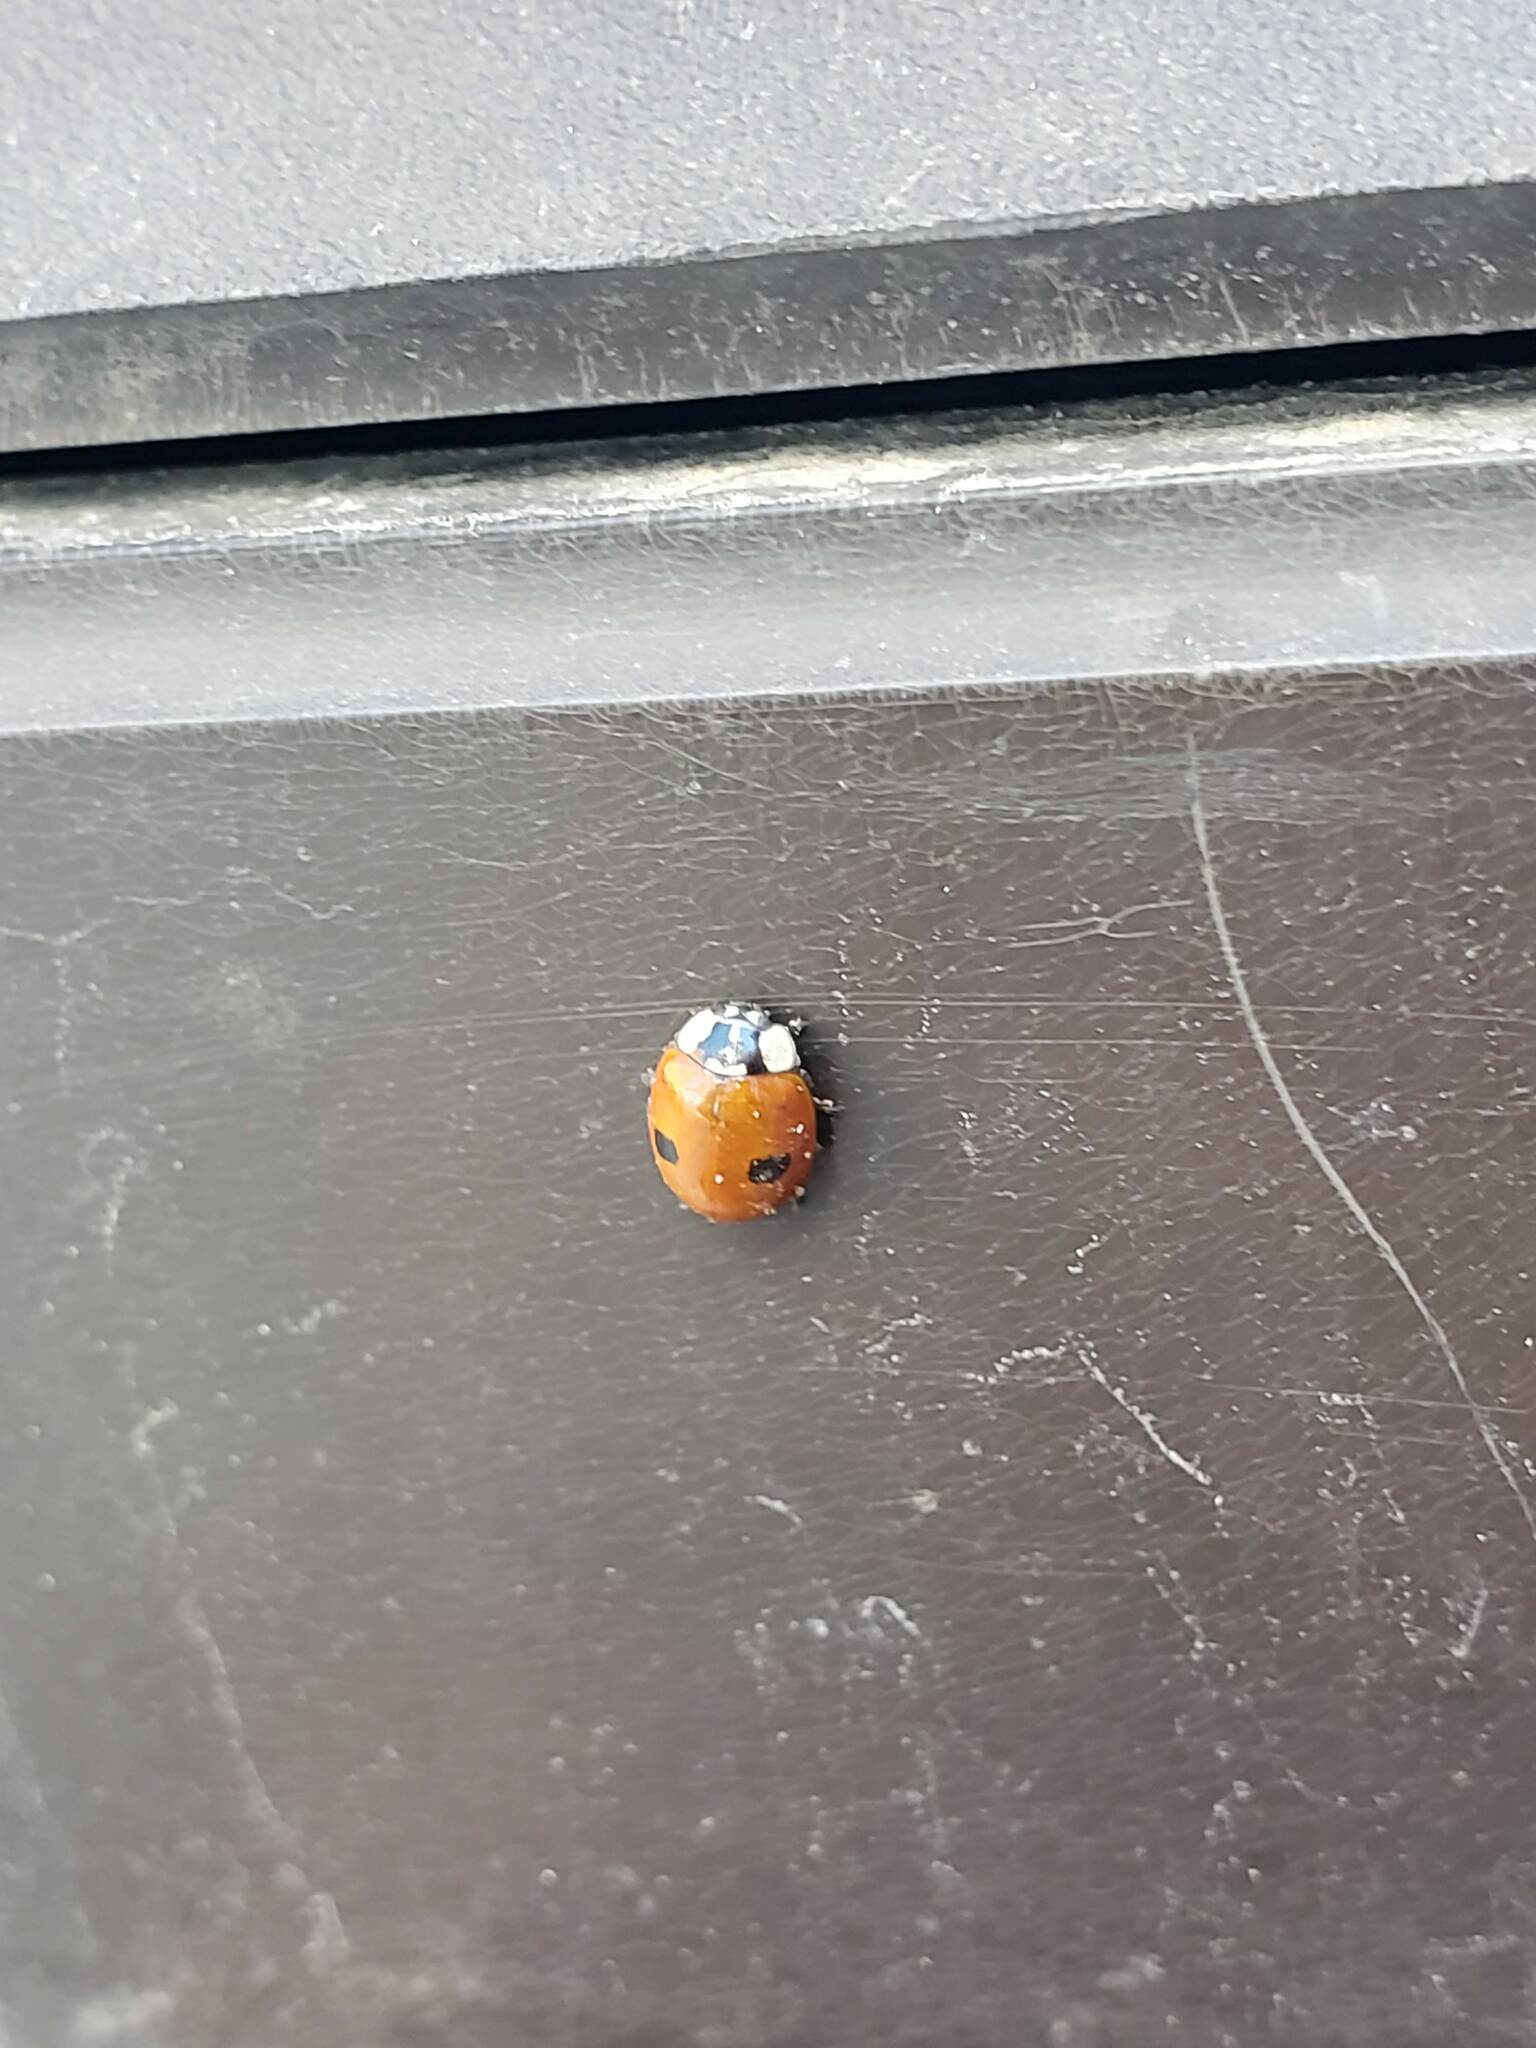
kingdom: Animalia
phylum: Arthropoda
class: Insecta
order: Coleoptera
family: Coccinellidae
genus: Adalia
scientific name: Adalia bipunctata
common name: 2-spot ladybird
